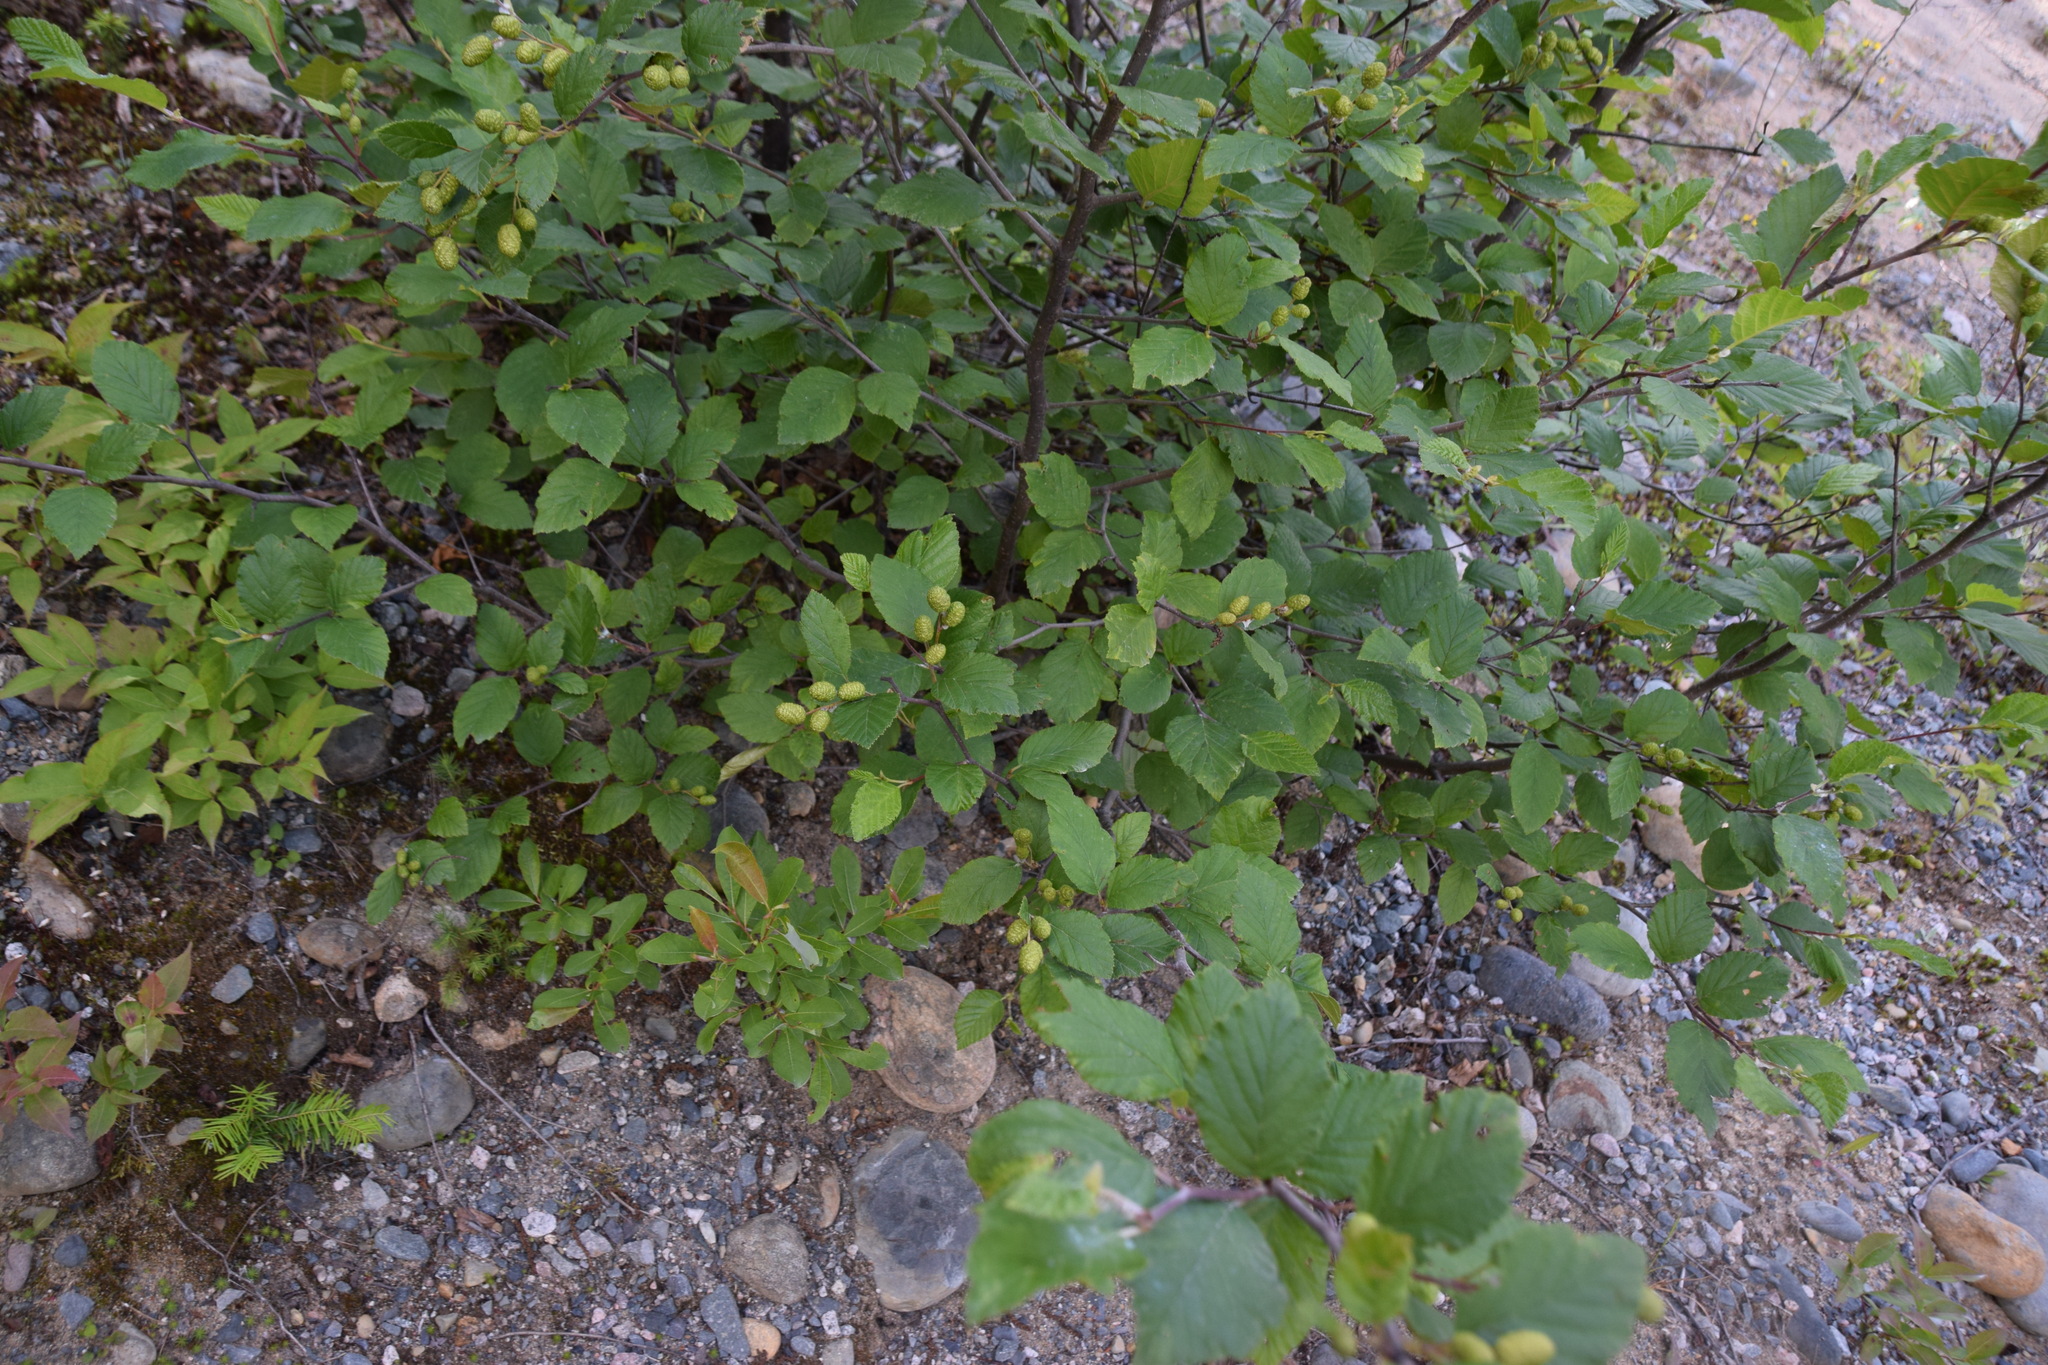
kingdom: Plantae
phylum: Tracheophyta
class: Magnoliopsida
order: Fagales
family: Betulaceae
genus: Alnus
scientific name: Alnus alnobetula
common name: Green alder
